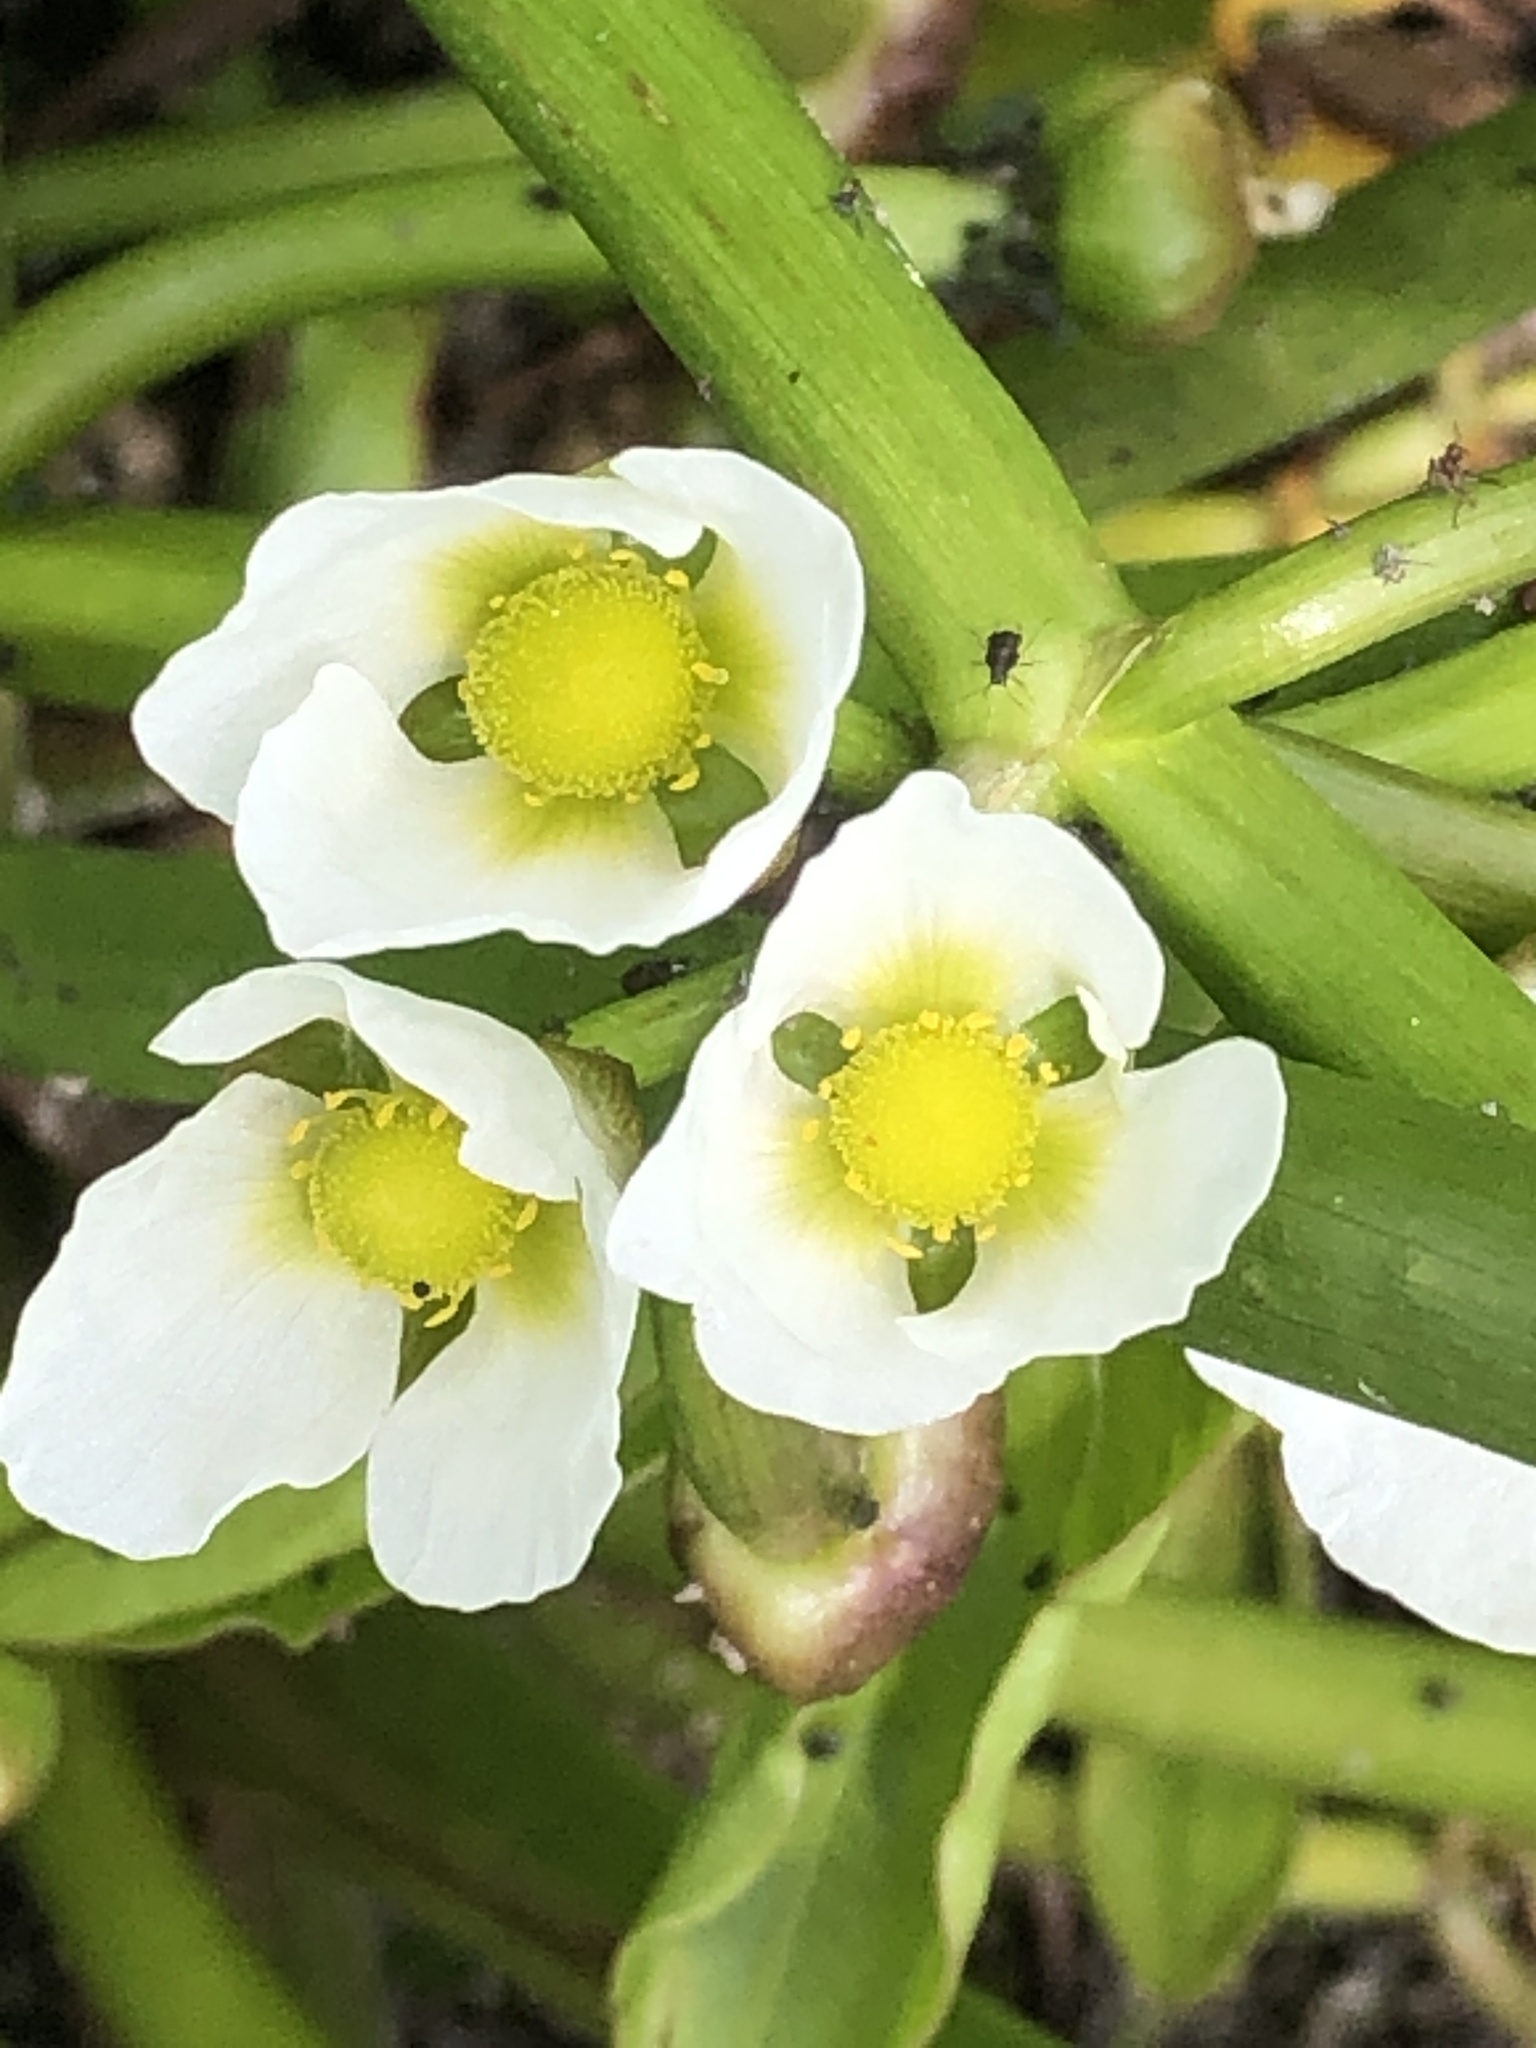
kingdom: Plantae
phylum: Tracheophyta
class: Liliopsida
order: Alismatales
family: Alismataceae
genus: Sagittaria
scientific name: Sagittaria calycina
